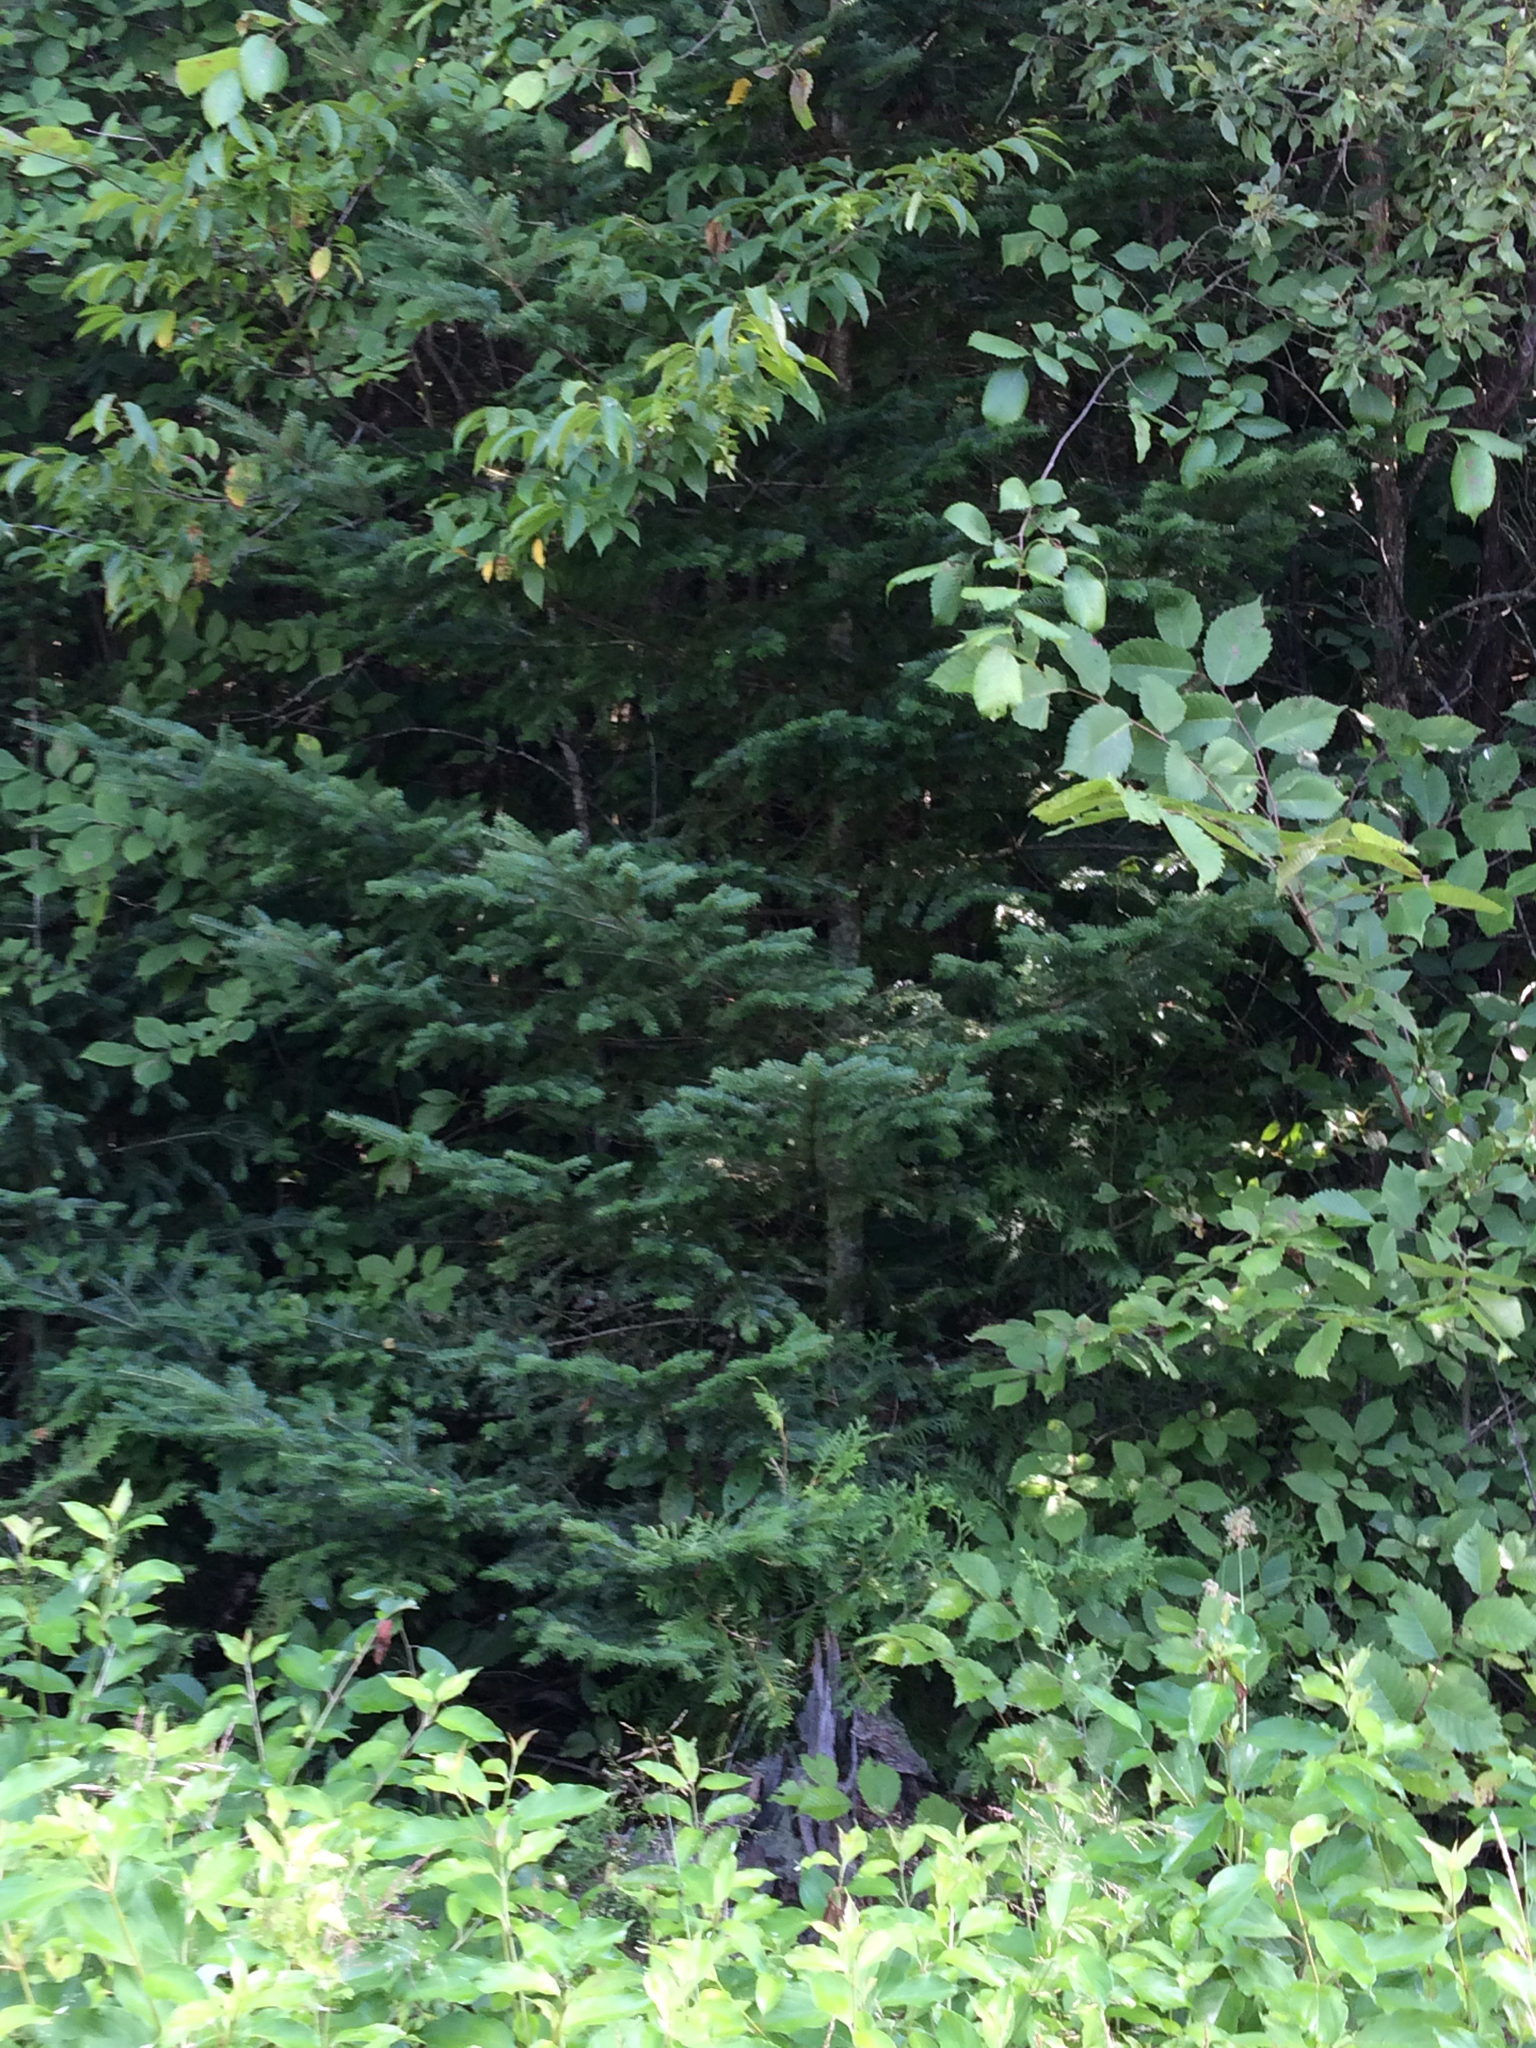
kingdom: Plantae
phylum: Tracheophyta
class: Pinopsida
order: Pinales
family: Pinaceae
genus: Abies
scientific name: Abies balsamea
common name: Balsam fir
